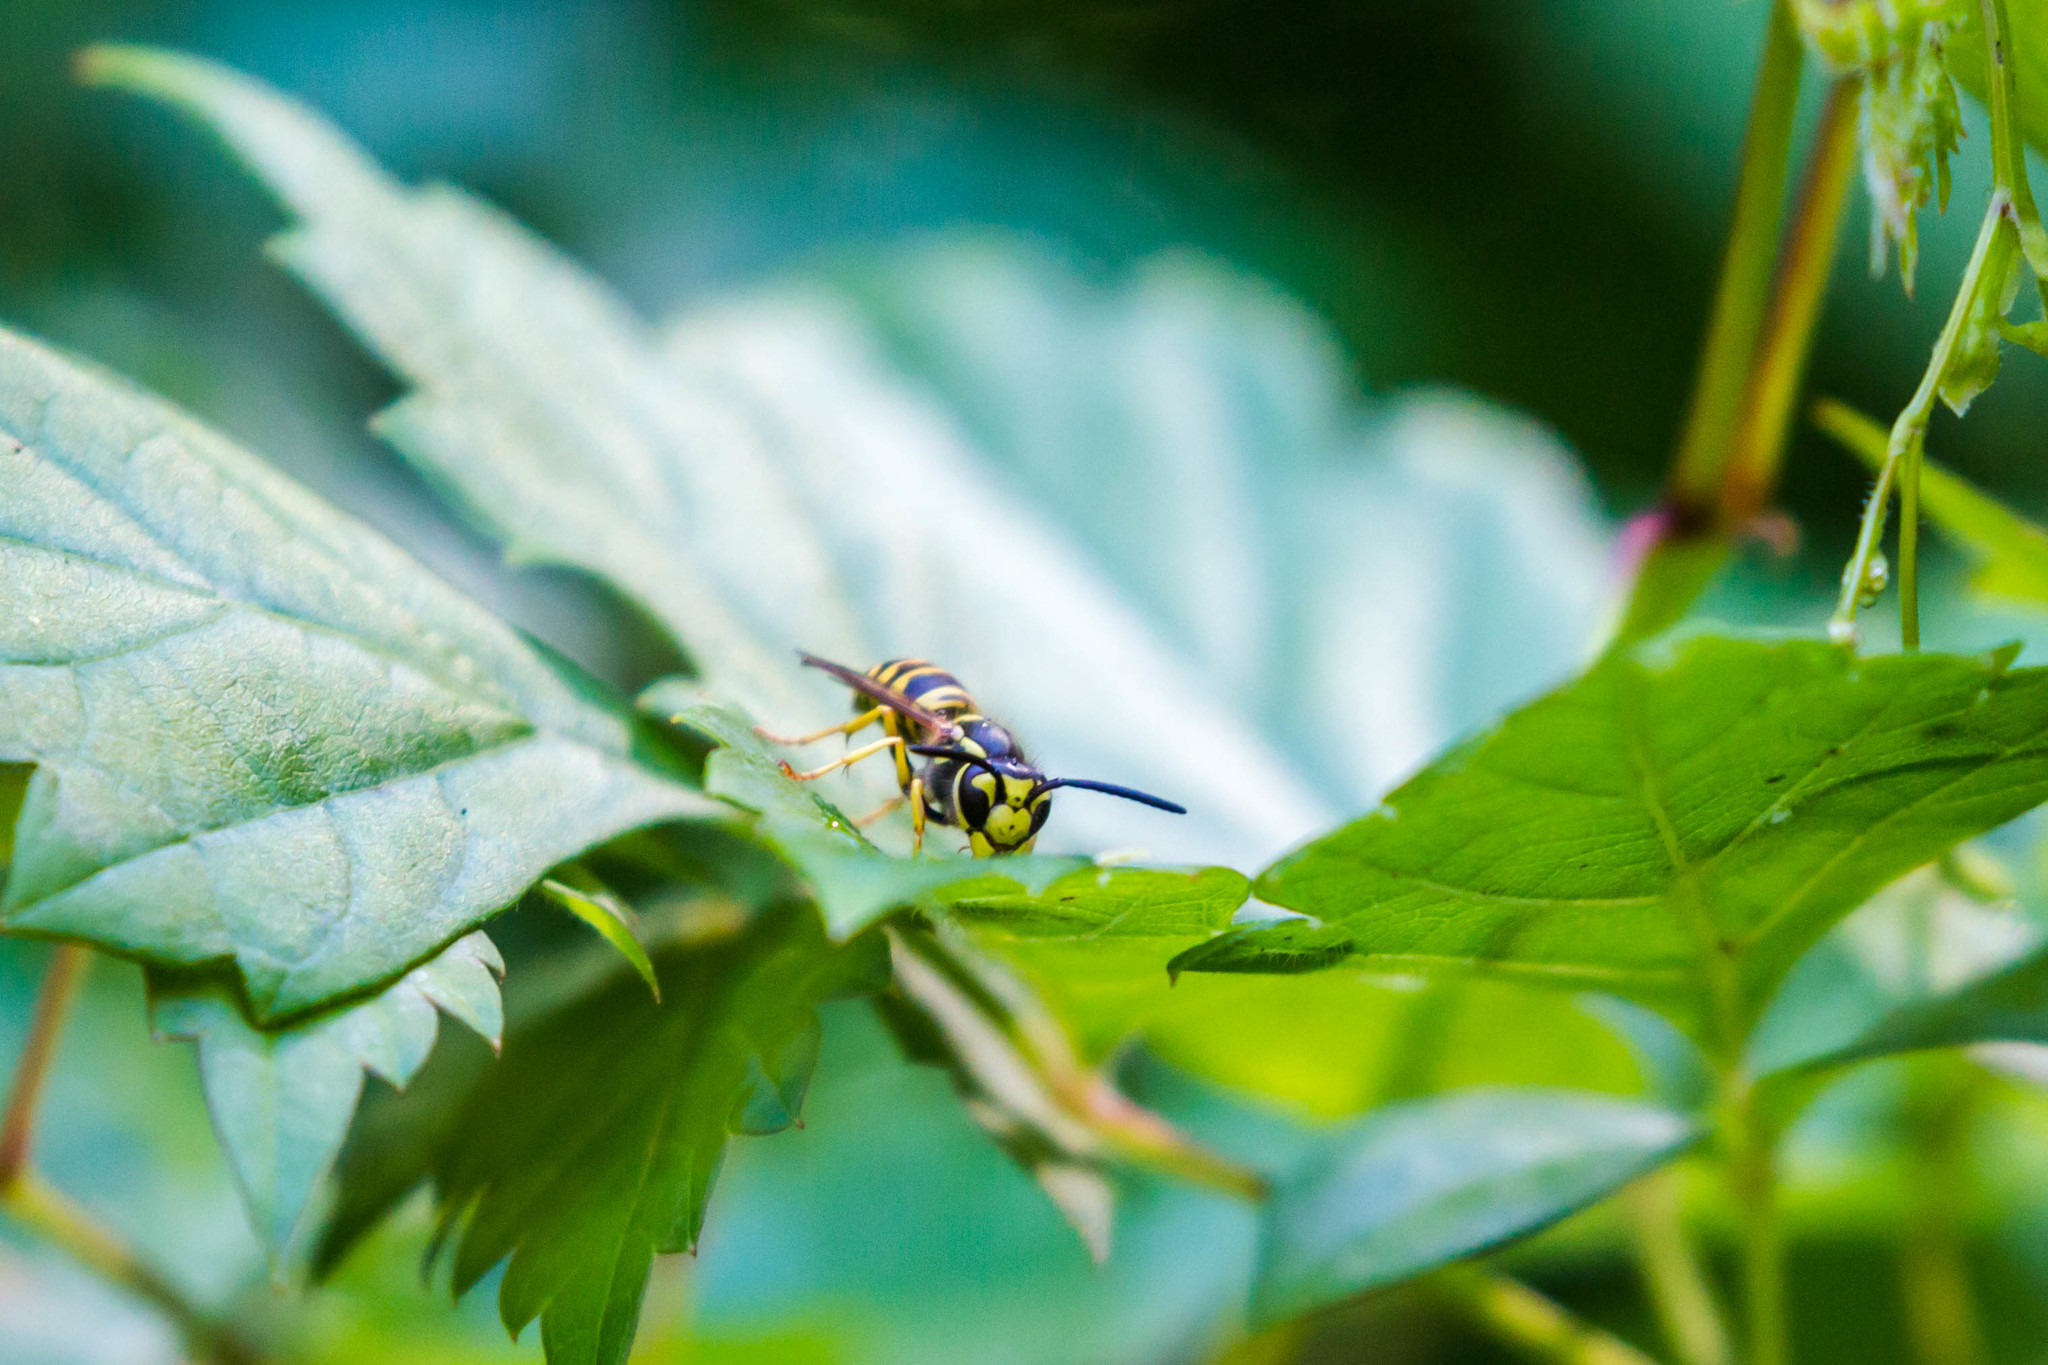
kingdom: Animalia
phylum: Arthropoda
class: Insecta
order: Hymenoptera
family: Vespidae
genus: Vespula
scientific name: Vespula maculifrons
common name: Eastern yellowjacket
